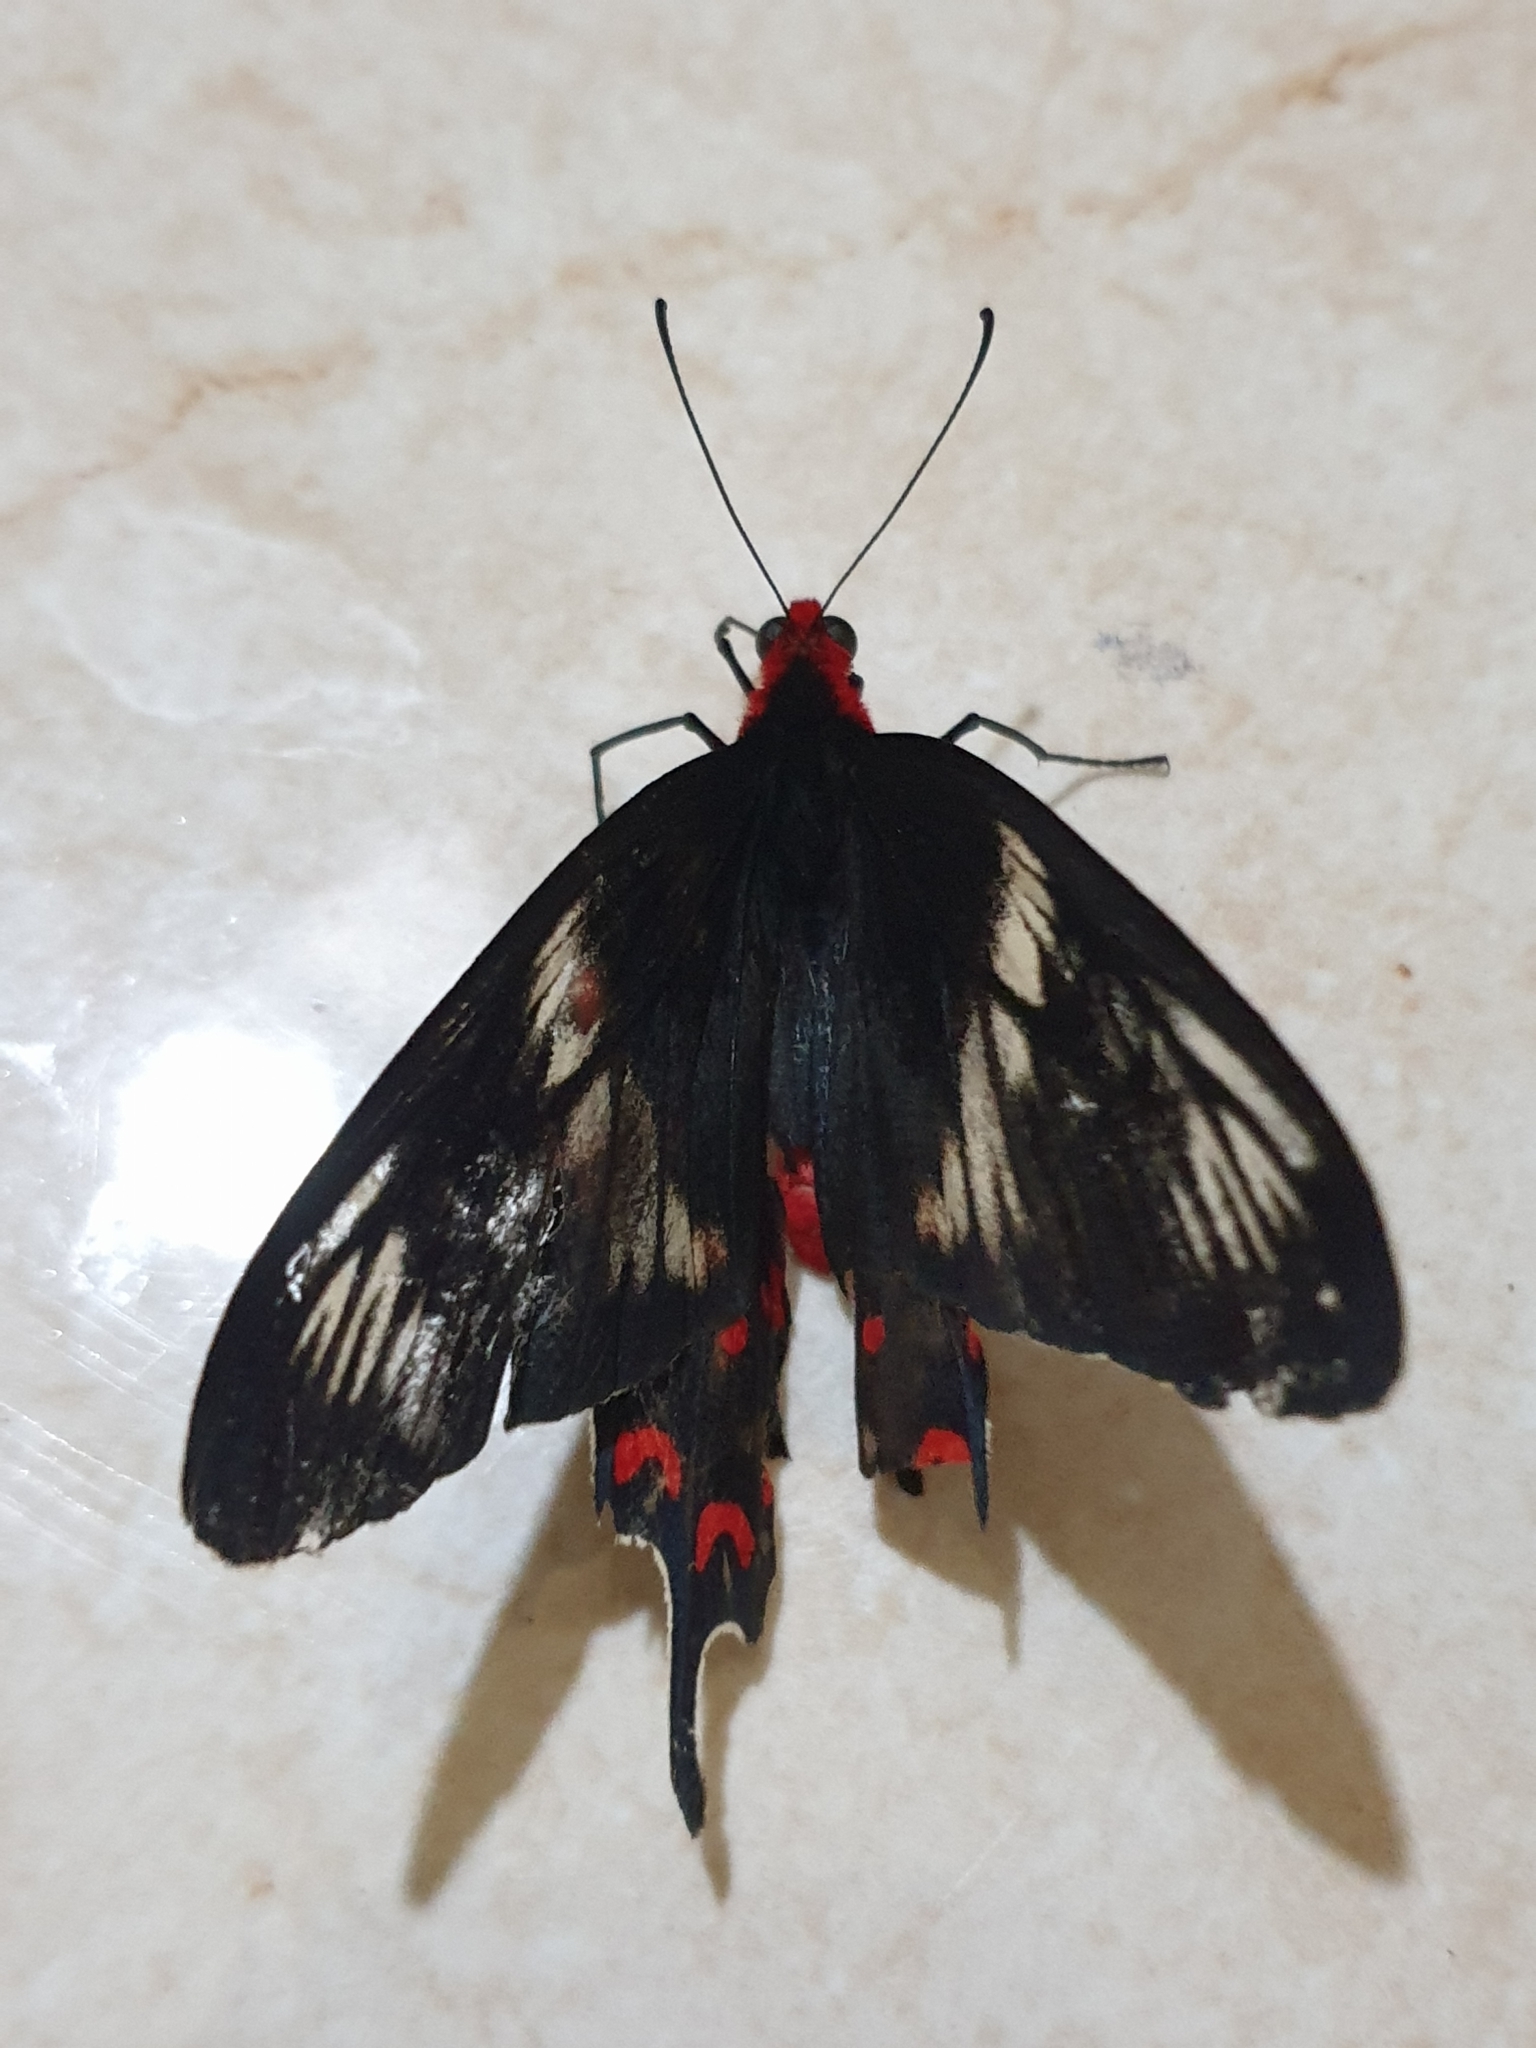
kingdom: Animalia
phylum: Arthropoda
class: Insecta
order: Lepidoptera
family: Papilionidae
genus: Pachliopta
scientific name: Pachliopta hector
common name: Crimson rose
